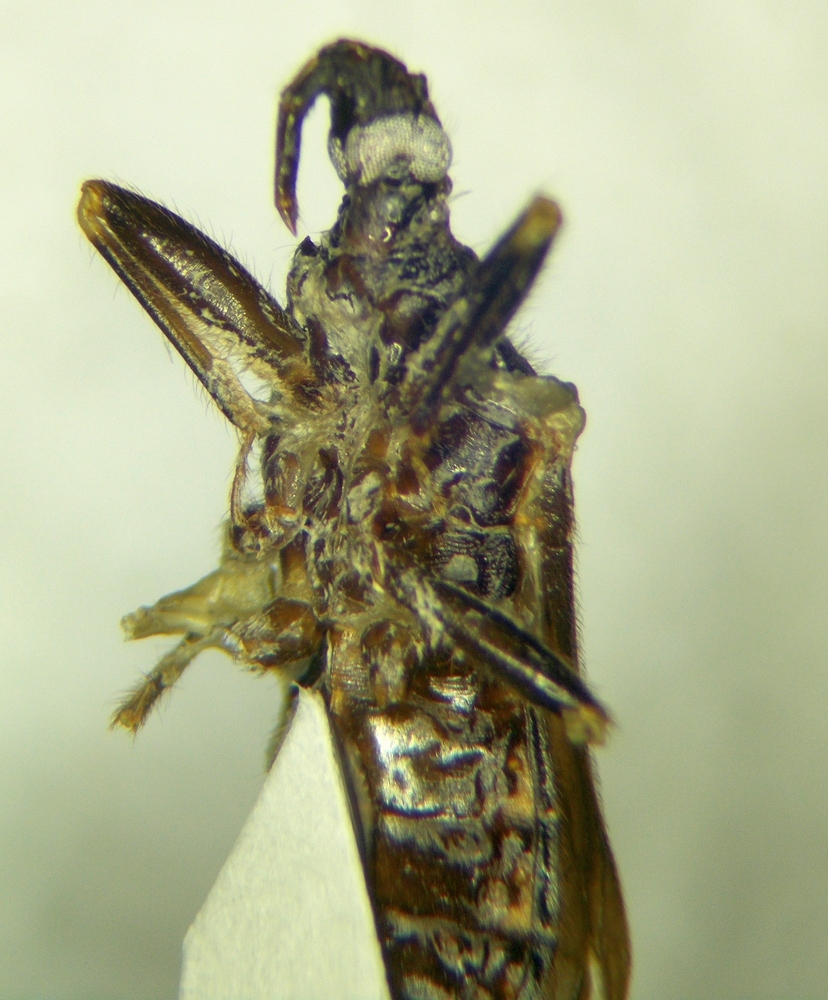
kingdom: Animalia
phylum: Arthropoda
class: Insecta
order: Hemiptera
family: Reduviidae
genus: Reduvius
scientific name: Reduvius personatus
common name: Masked hunter
